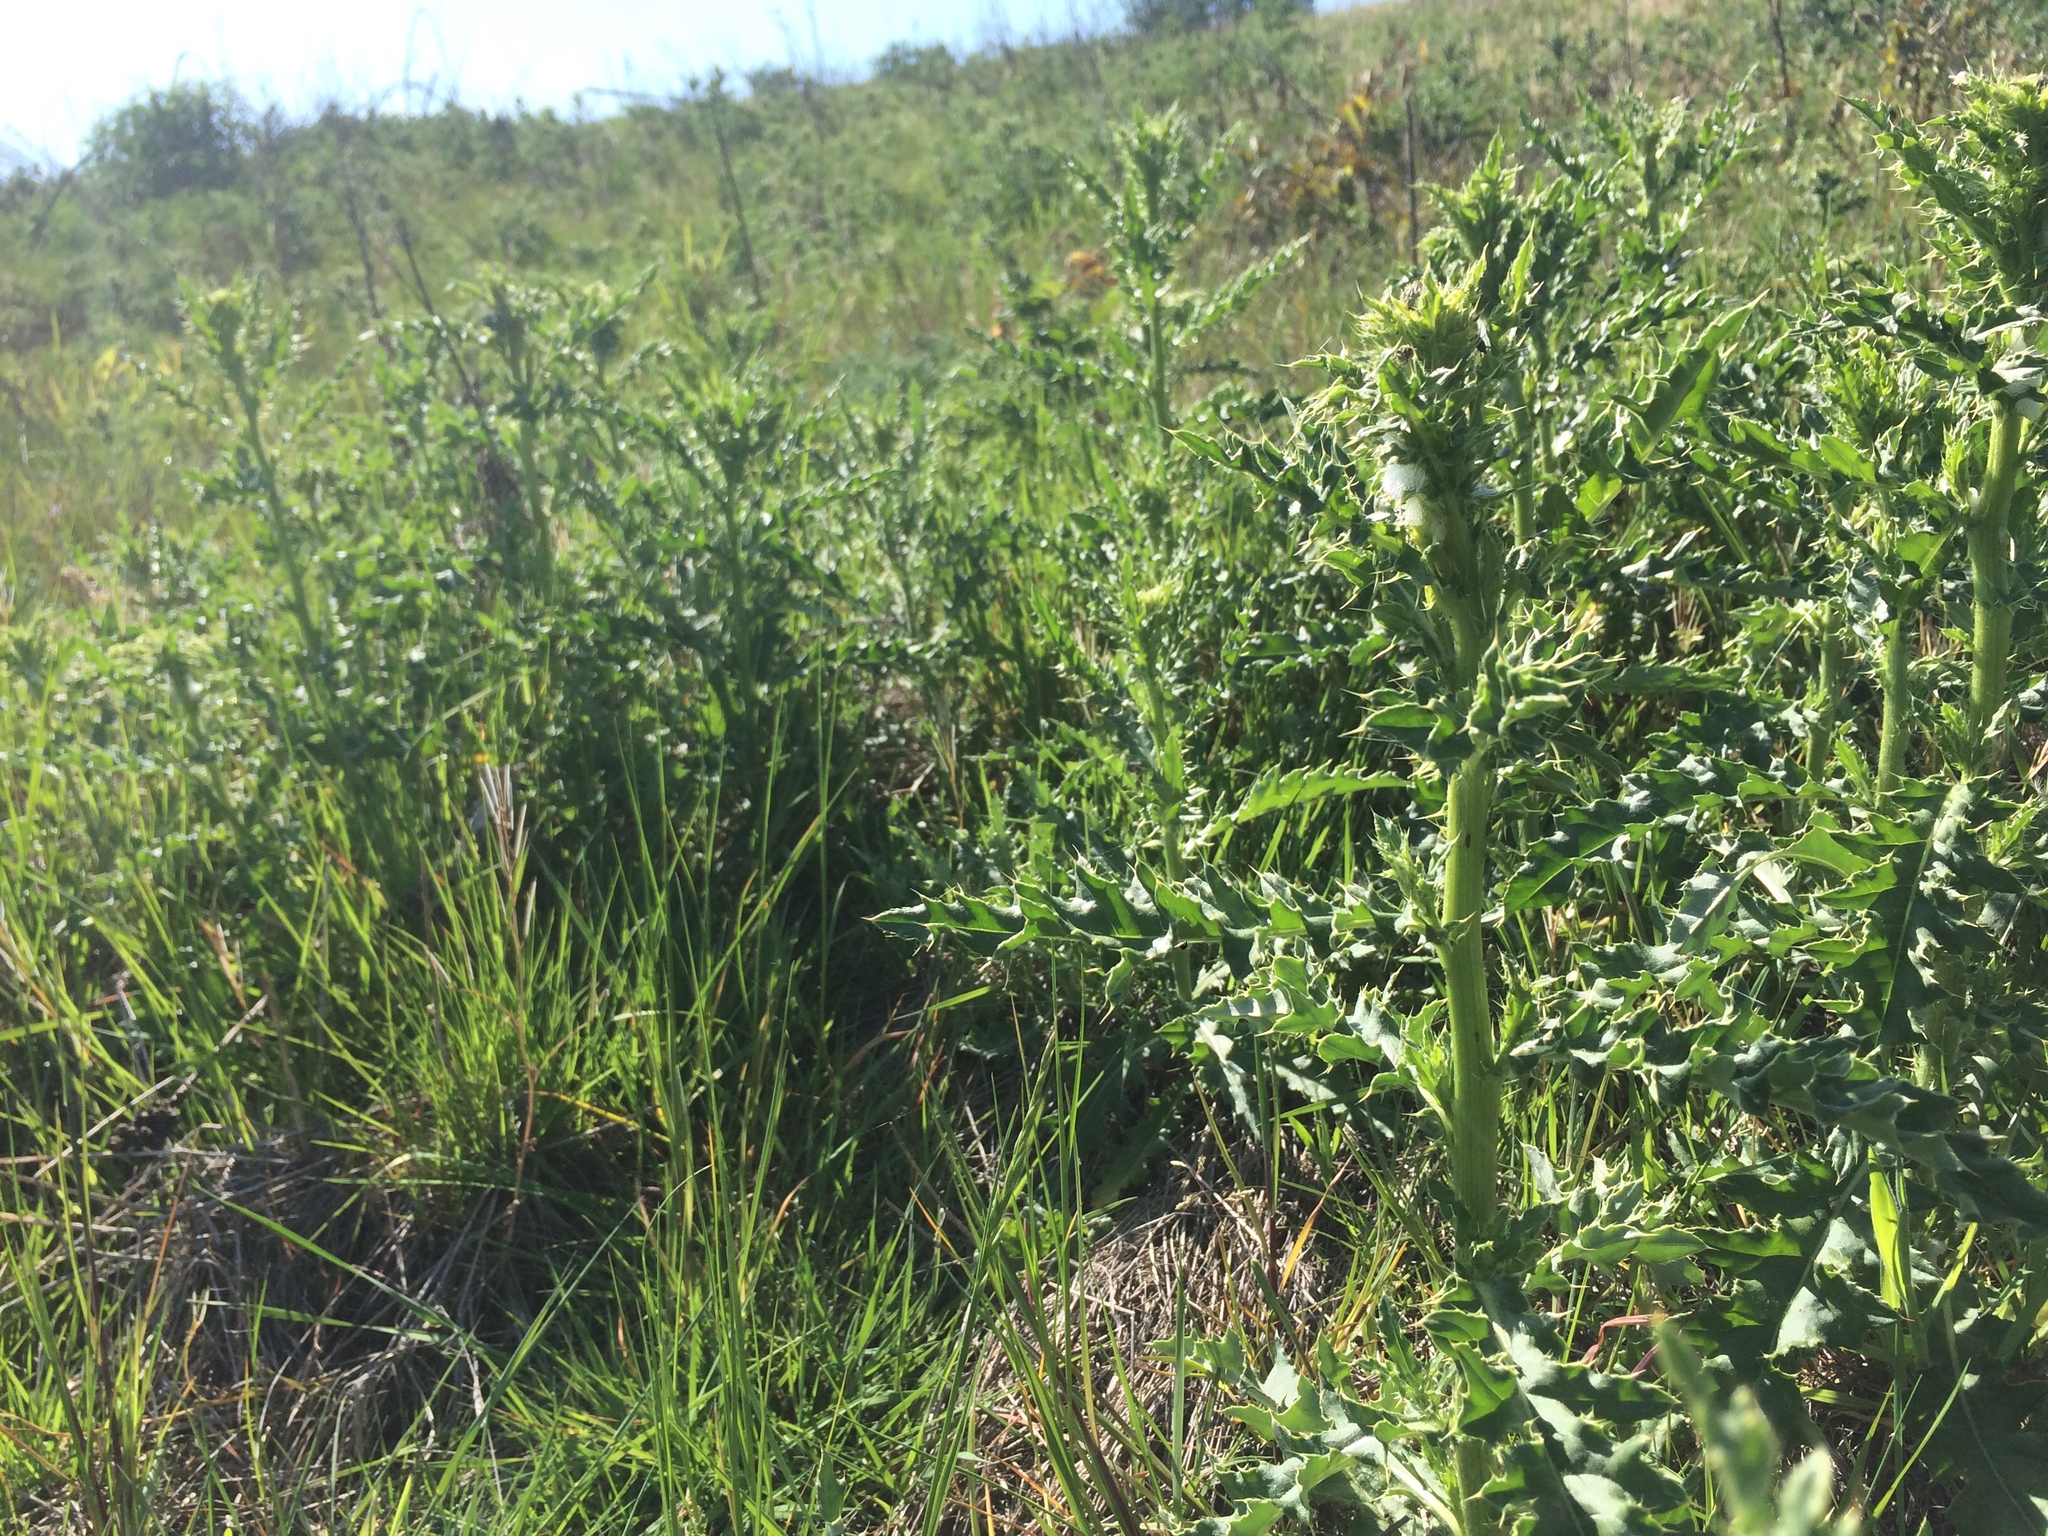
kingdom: Plantae
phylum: Tracheophyta
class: Magnoliopsida
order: Asterales
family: Asteraceae
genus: Cirsium
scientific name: Cirsium arvense
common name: Creeping thistle
